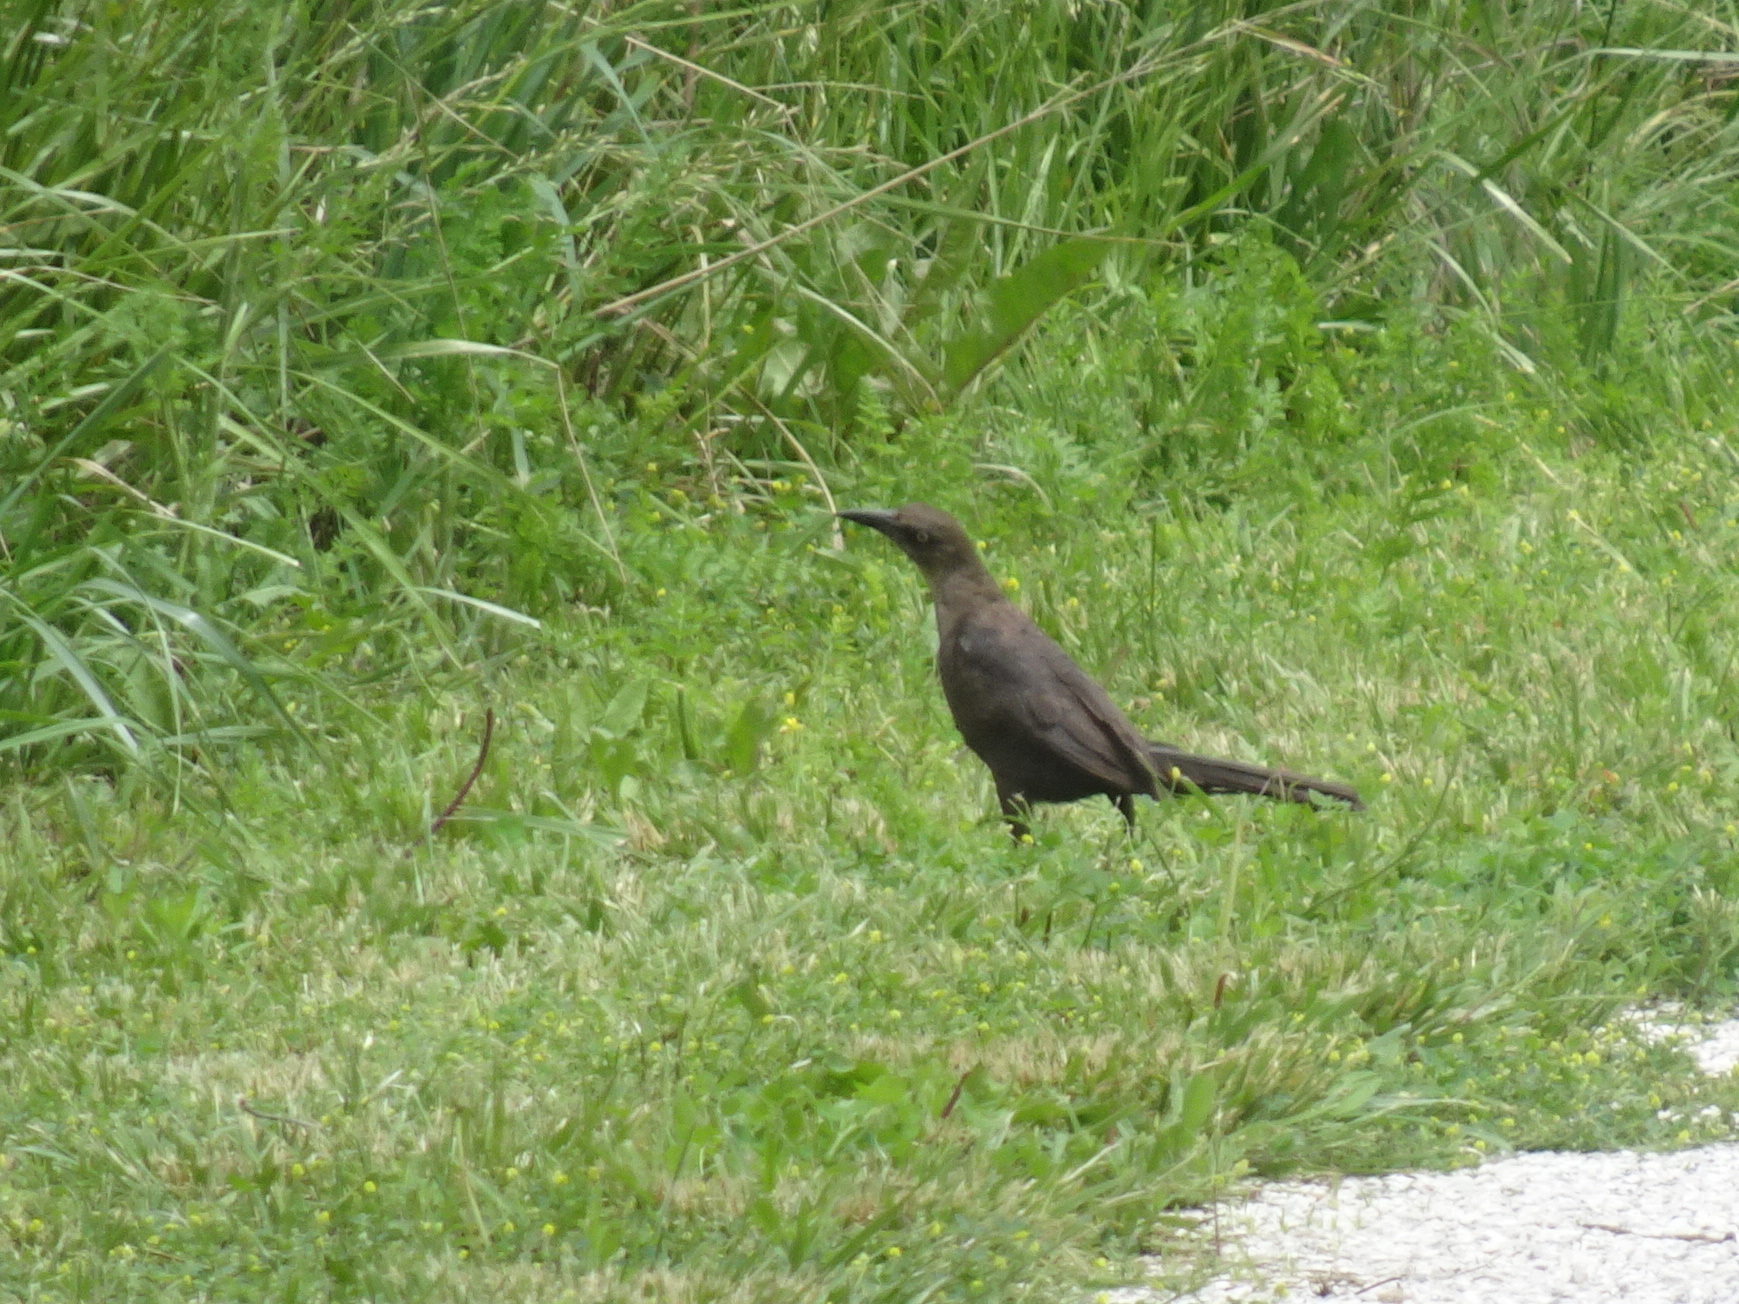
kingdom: Animalia
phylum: Chordata
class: Aves
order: Passeriformes
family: Icteridae
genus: Quiscalus
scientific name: Quiscalus mexicanus
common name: Great-tailed grackle
